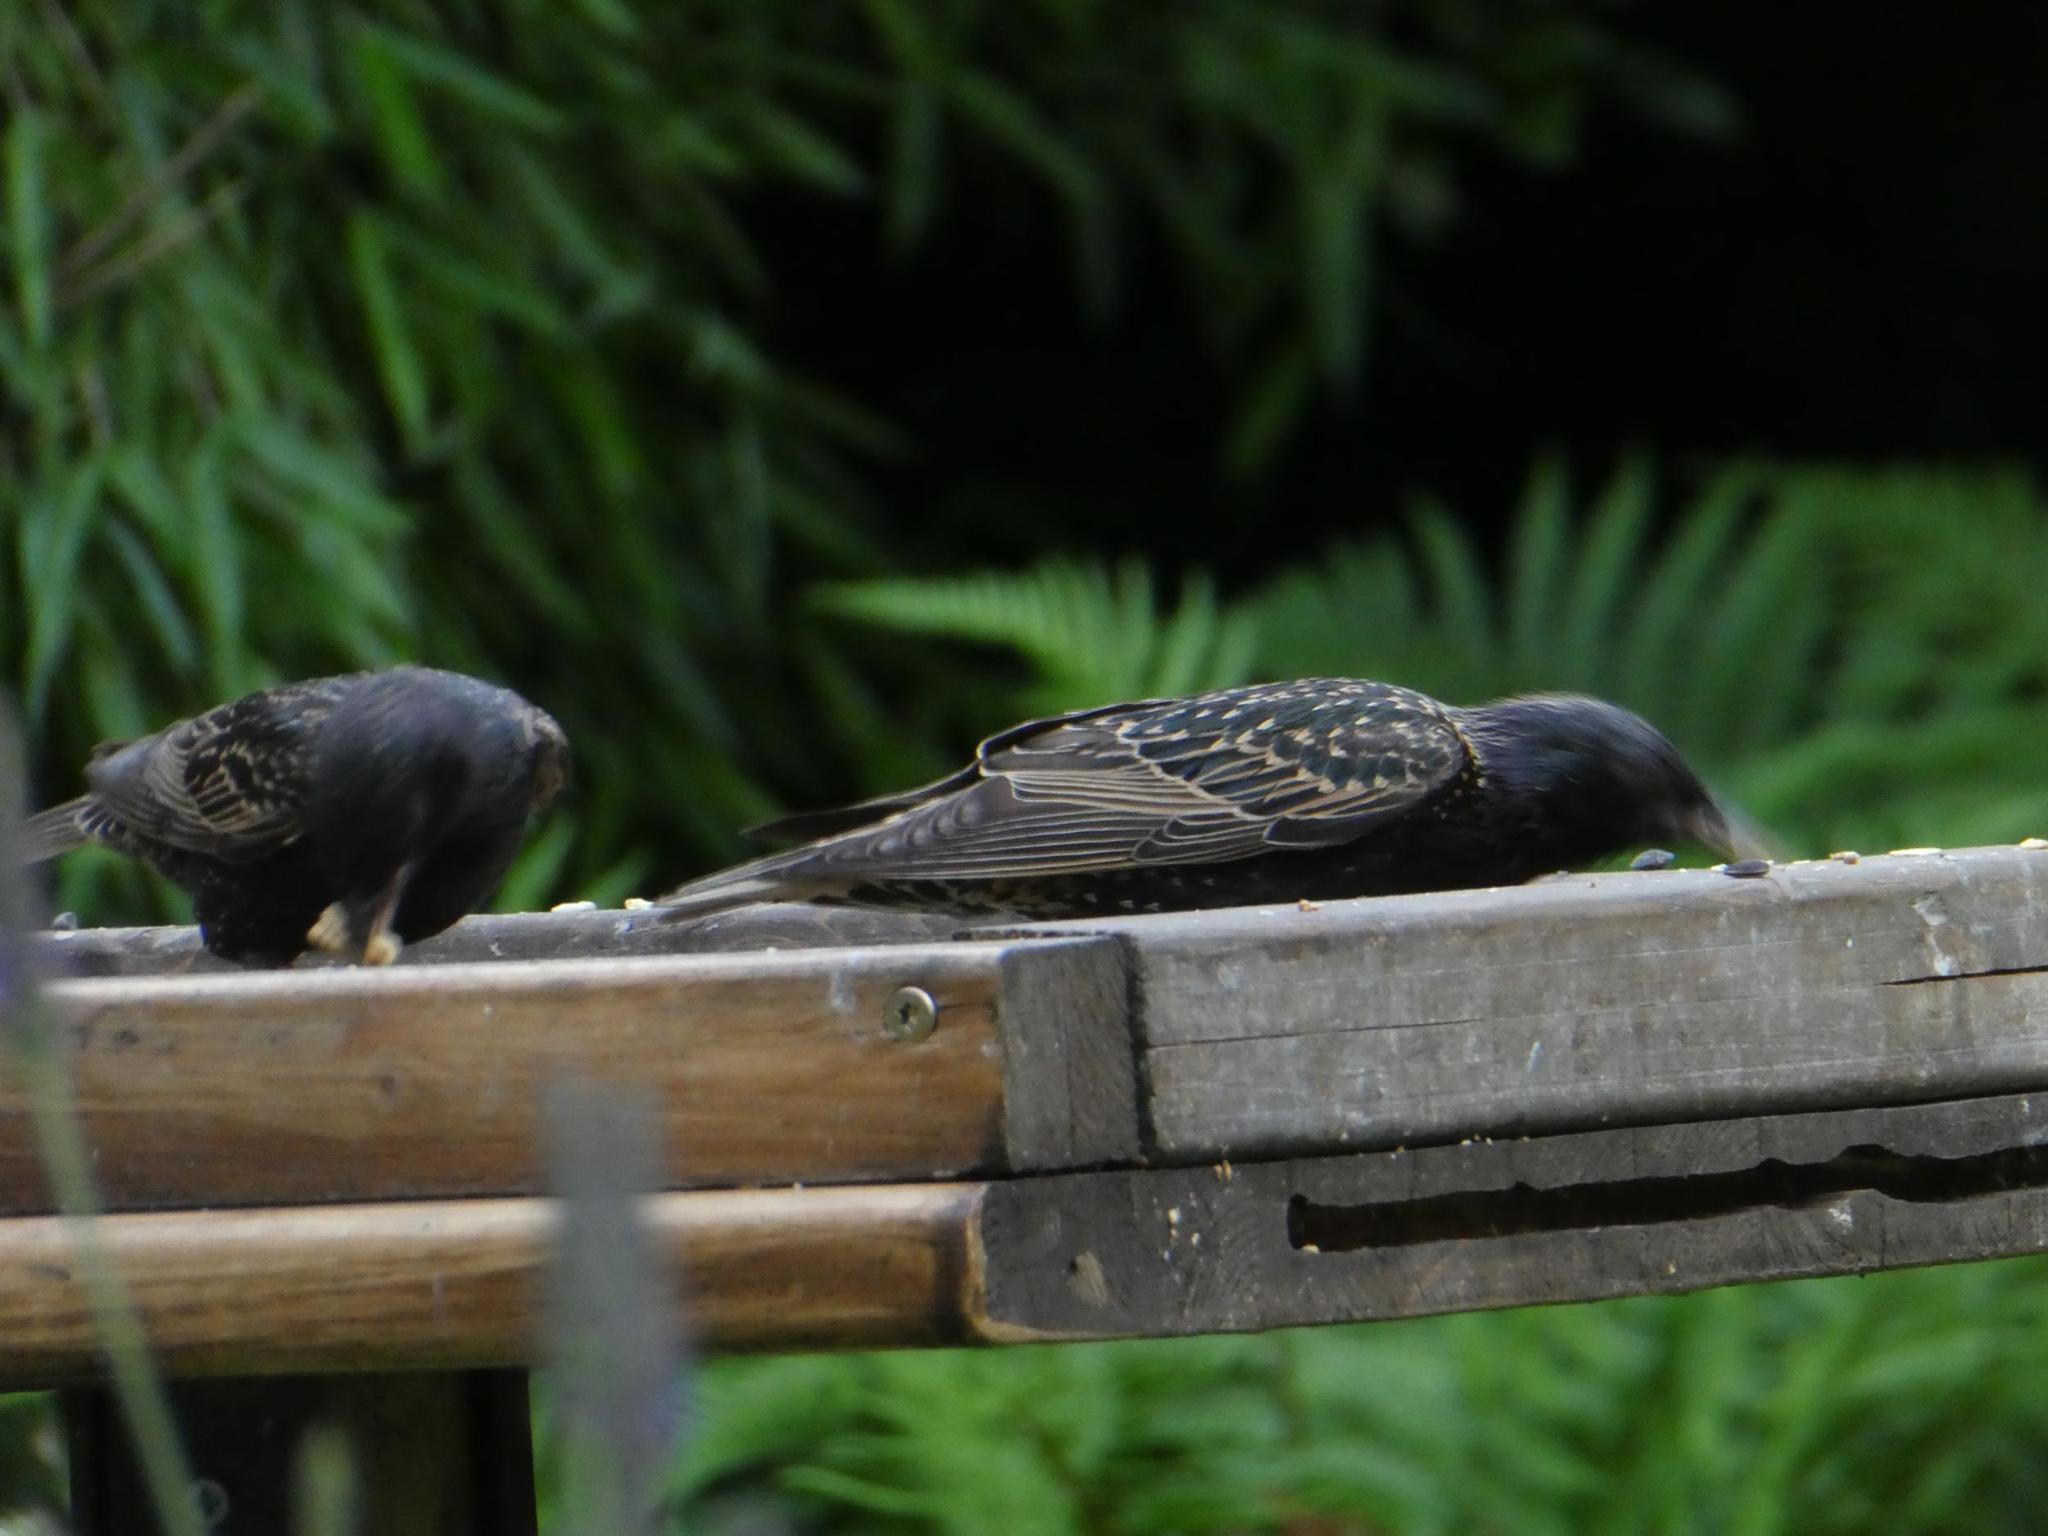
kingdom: Animalia
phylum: Chordata
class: Aves
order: Passeriformes
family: Sturnidae
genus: Sturnus
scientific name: Sturnus vulgaris
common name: Common starling
